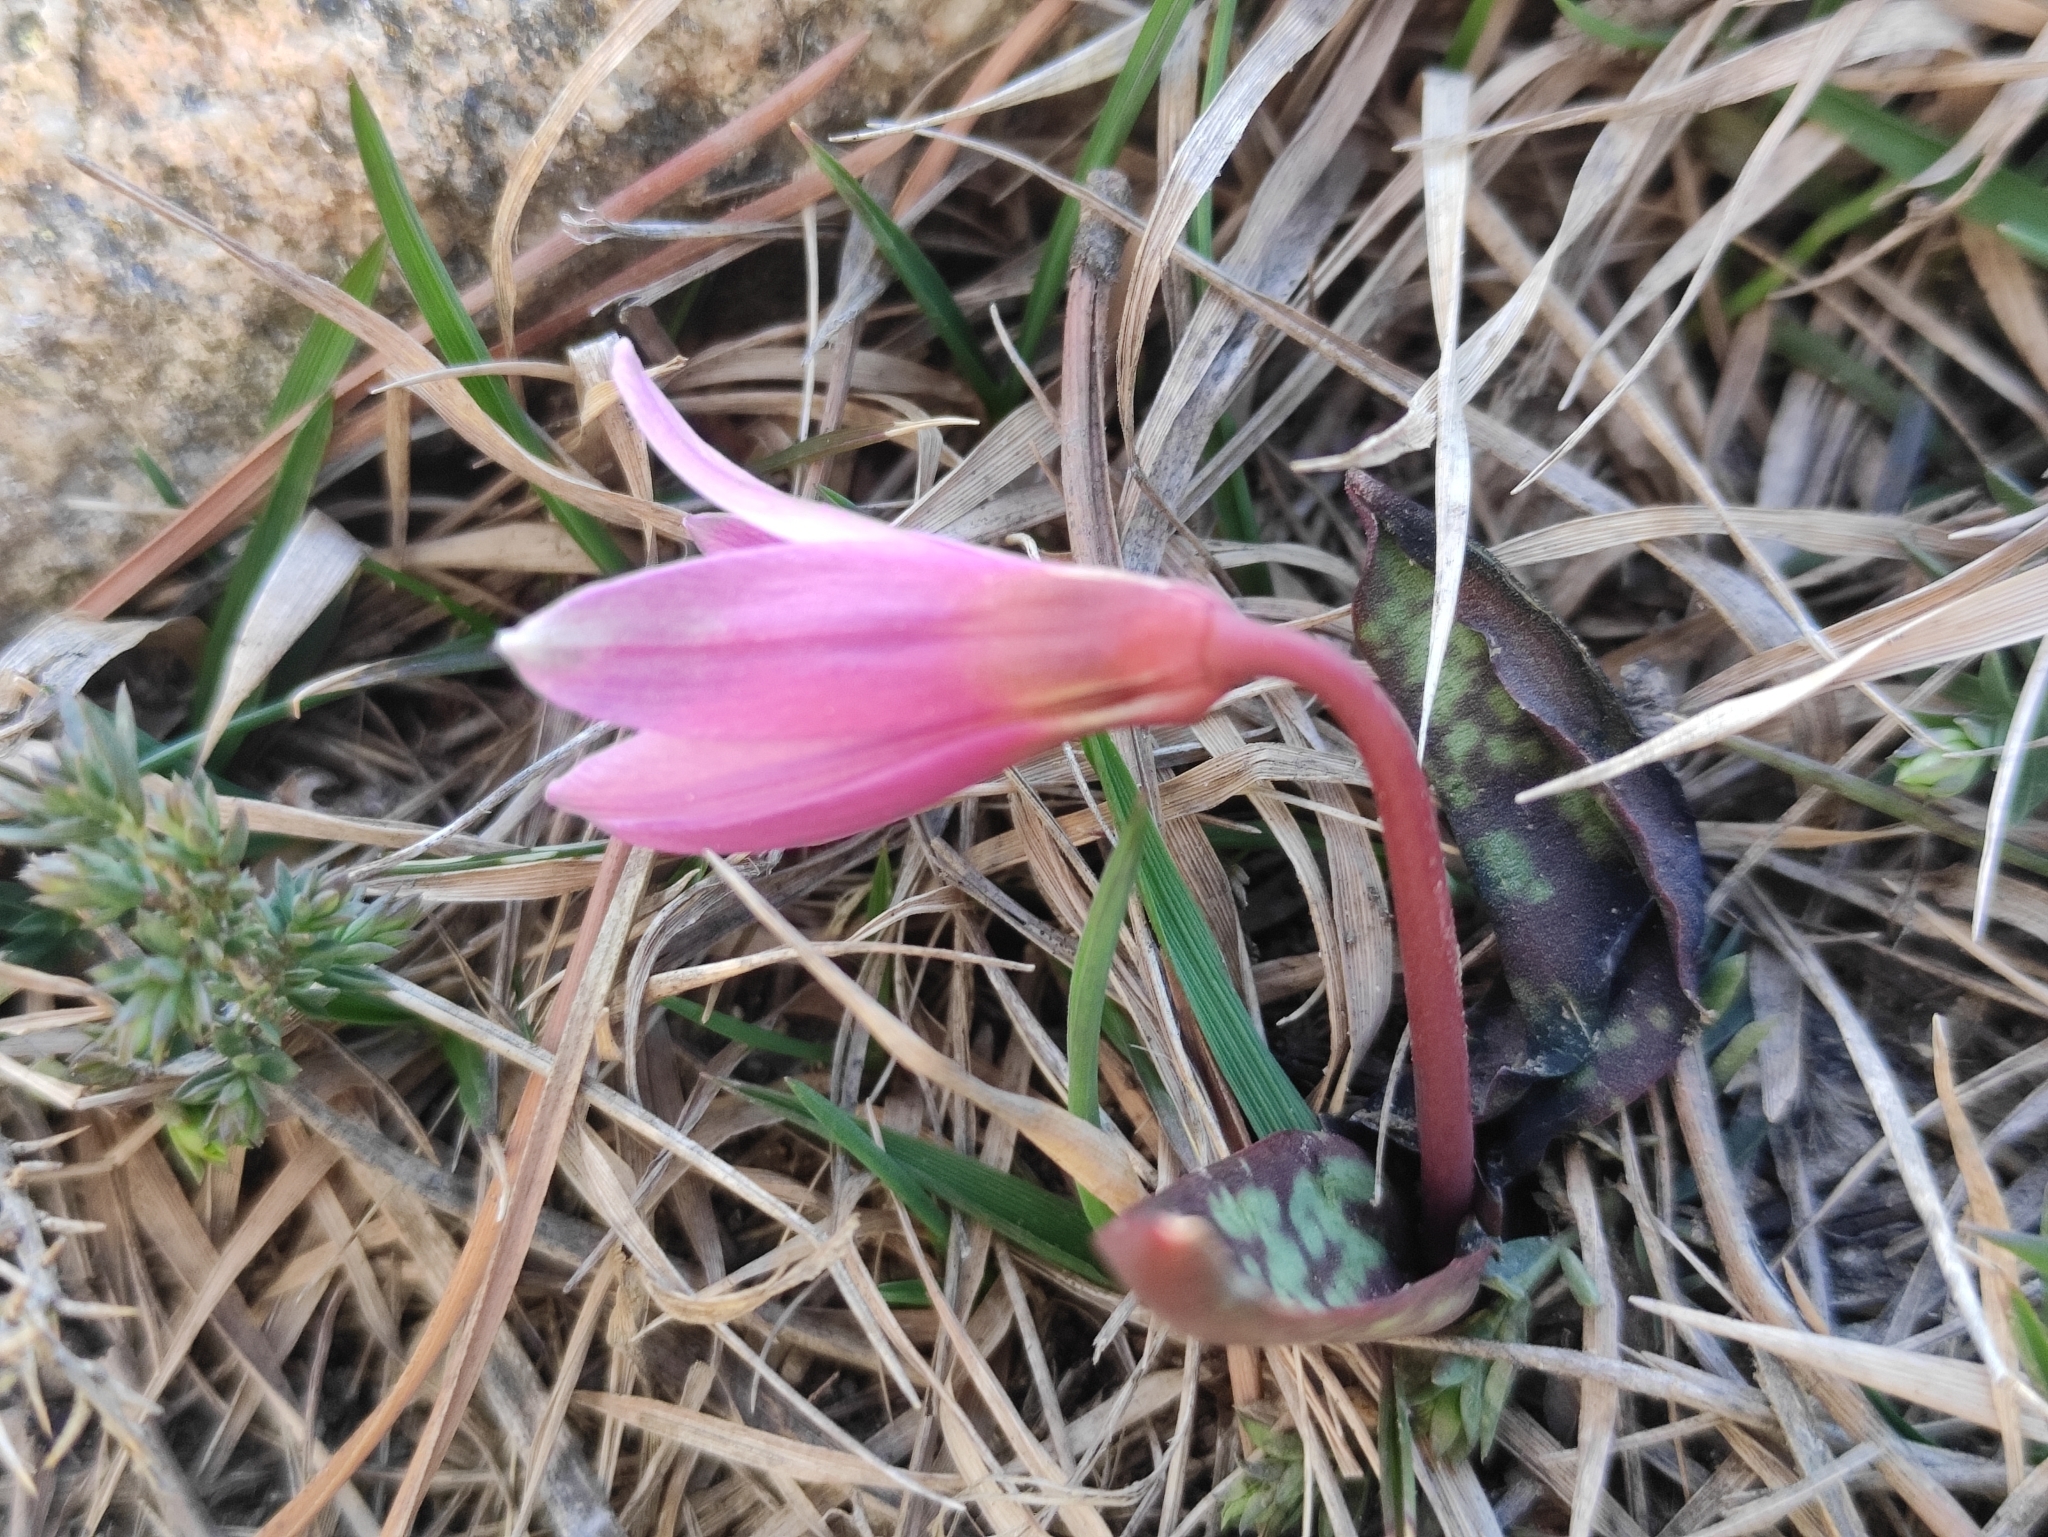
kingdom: Plantae
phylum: Tracheophyta
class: Liliopsida
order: Liliales
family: Liliaceae
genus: Erythronium
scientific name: Erythronium dens-canis
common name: Dog's-tooth-violet
